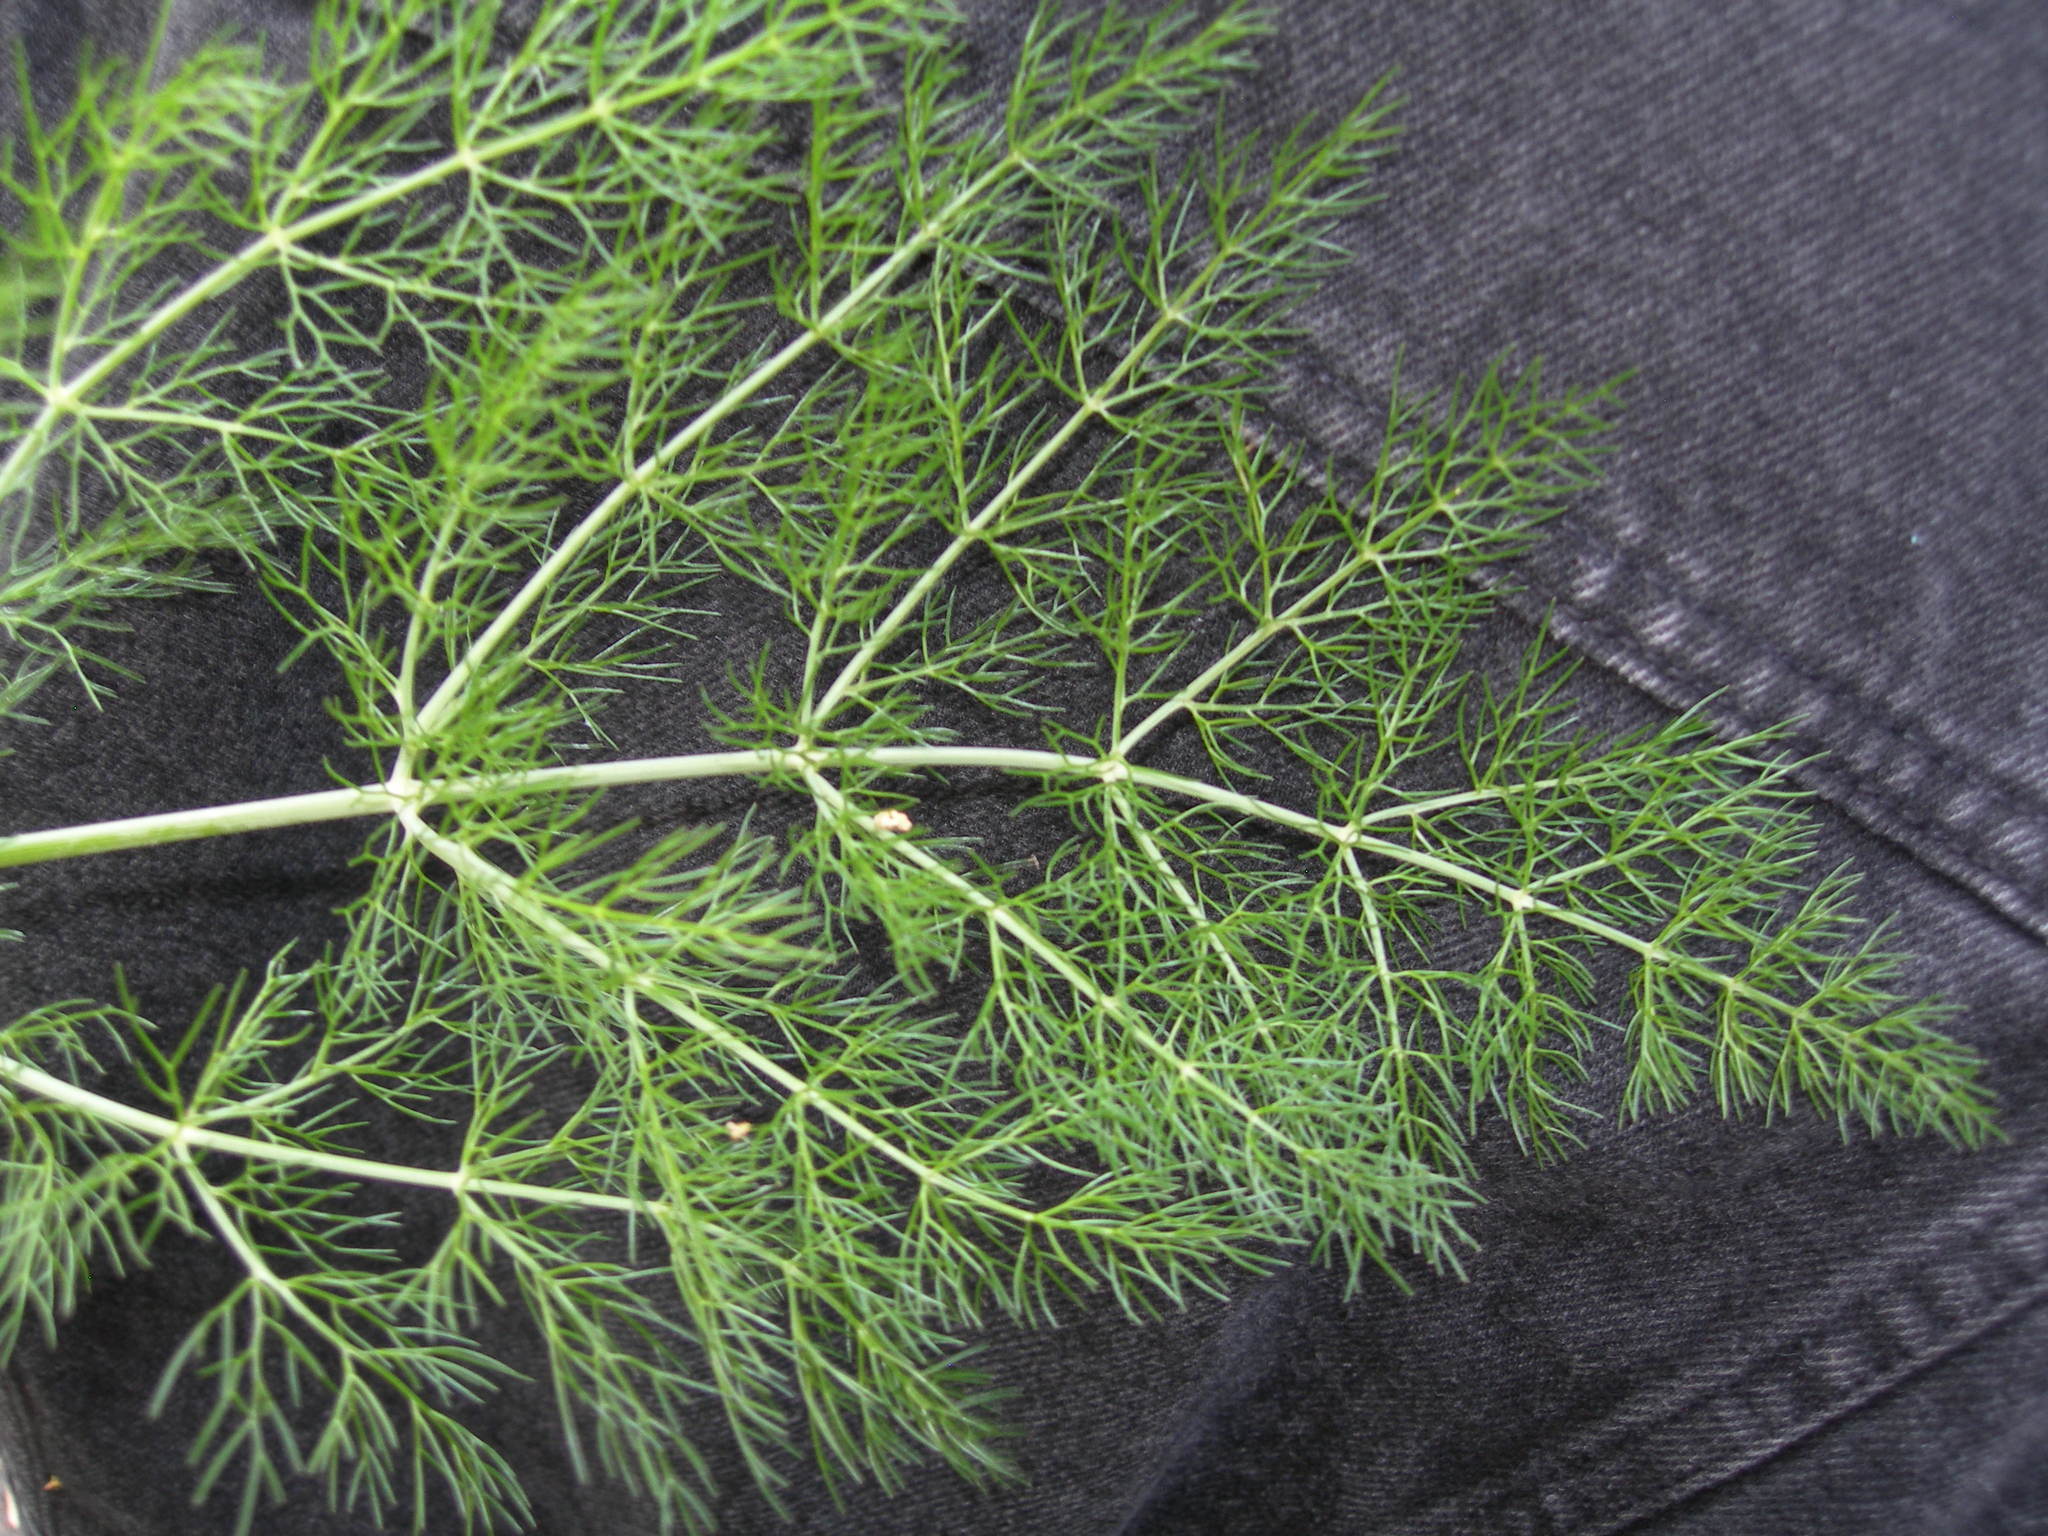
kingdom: Plantae
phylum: Tracheophyta
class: Magnoliopsida
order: Apiales
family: Apiaceae
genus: Foeniculum
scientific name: Foeniculum vulgare
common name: Fennel
